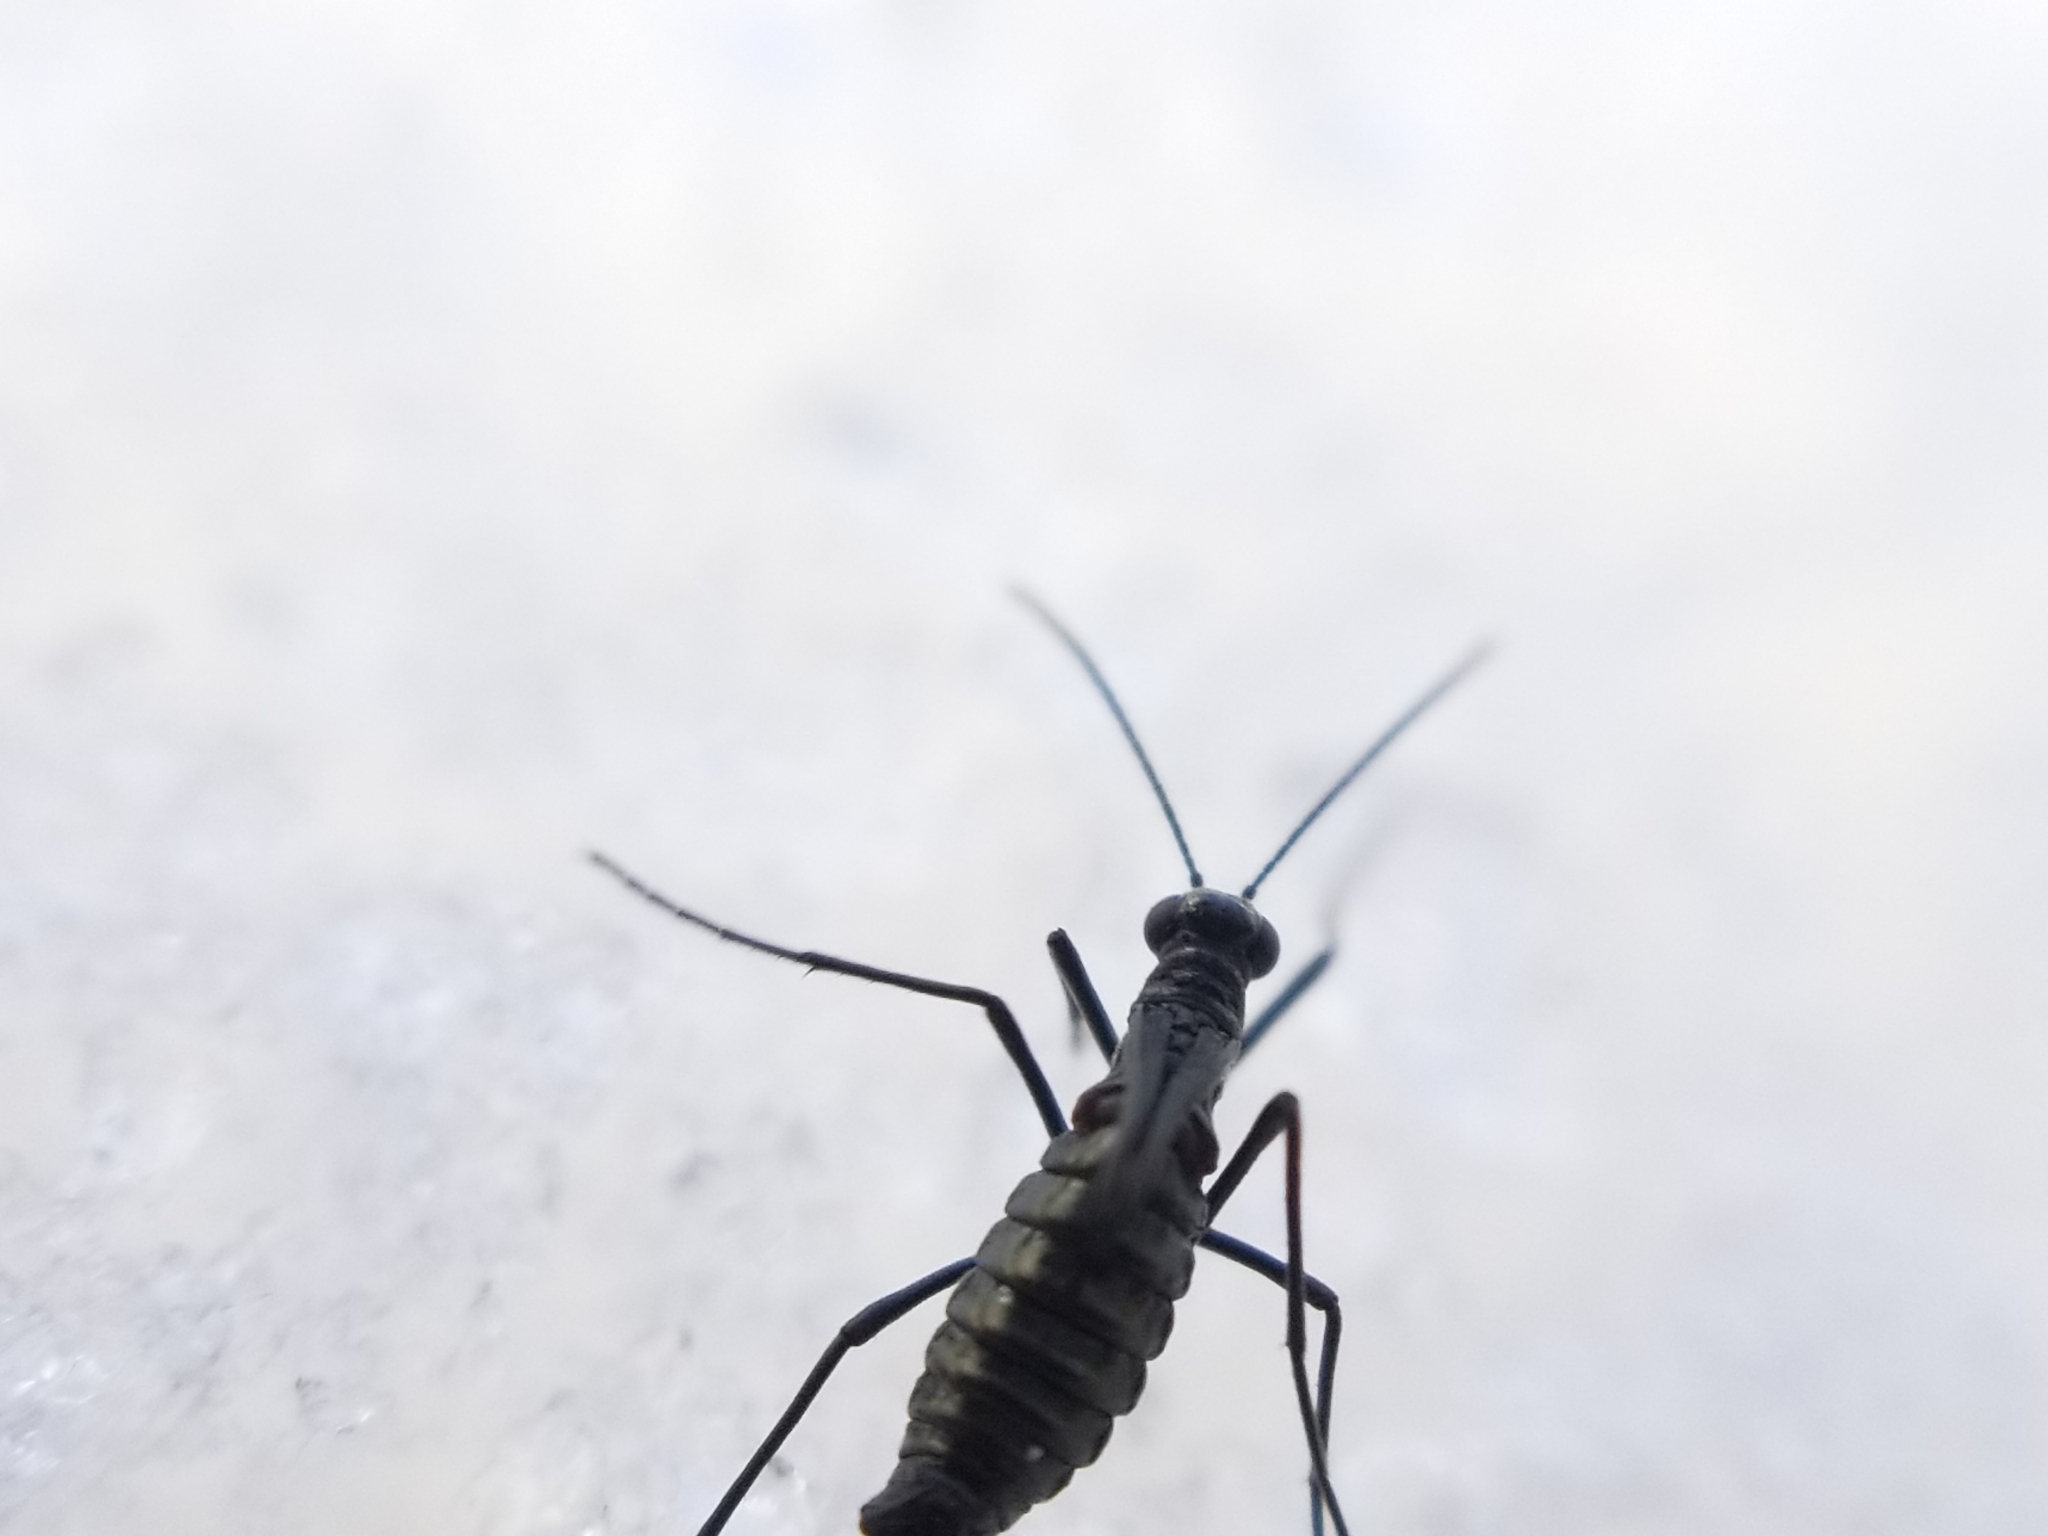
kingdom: Animalia
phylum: Arthropoda
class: Insecta
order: Mecoptera
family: Boreidae
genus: Boreus
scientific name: Boreus coloradensis
